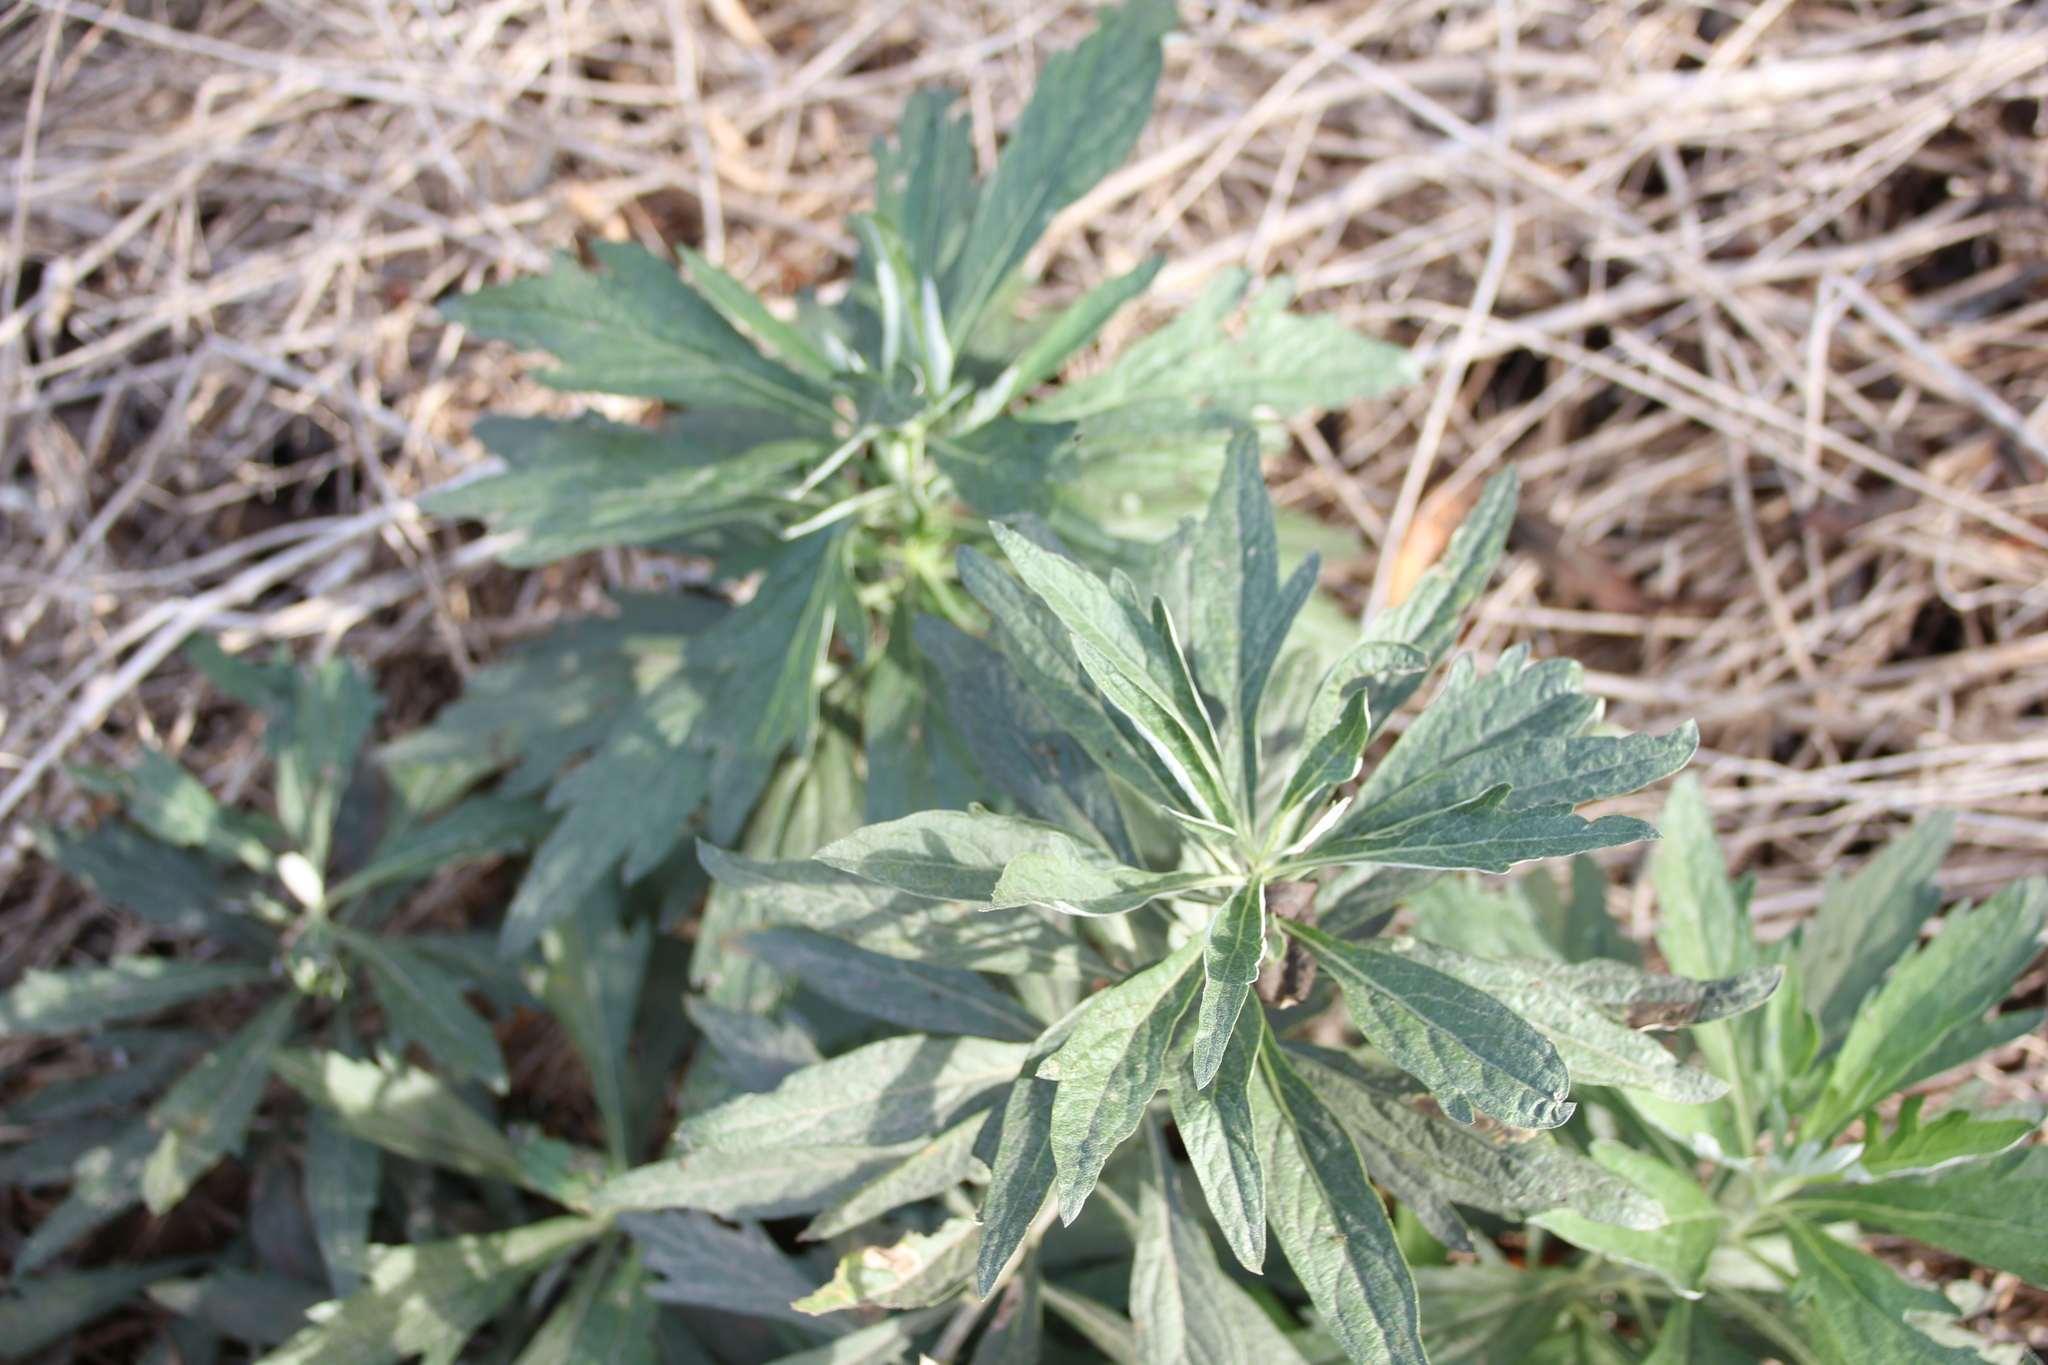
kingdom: Plantae
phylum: Tracheophyta
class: Magnoliopsida
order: Asterales
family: Asteraceae
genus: Artemisia
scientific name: Artemisia douglasiana
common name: Northwest mugwort
